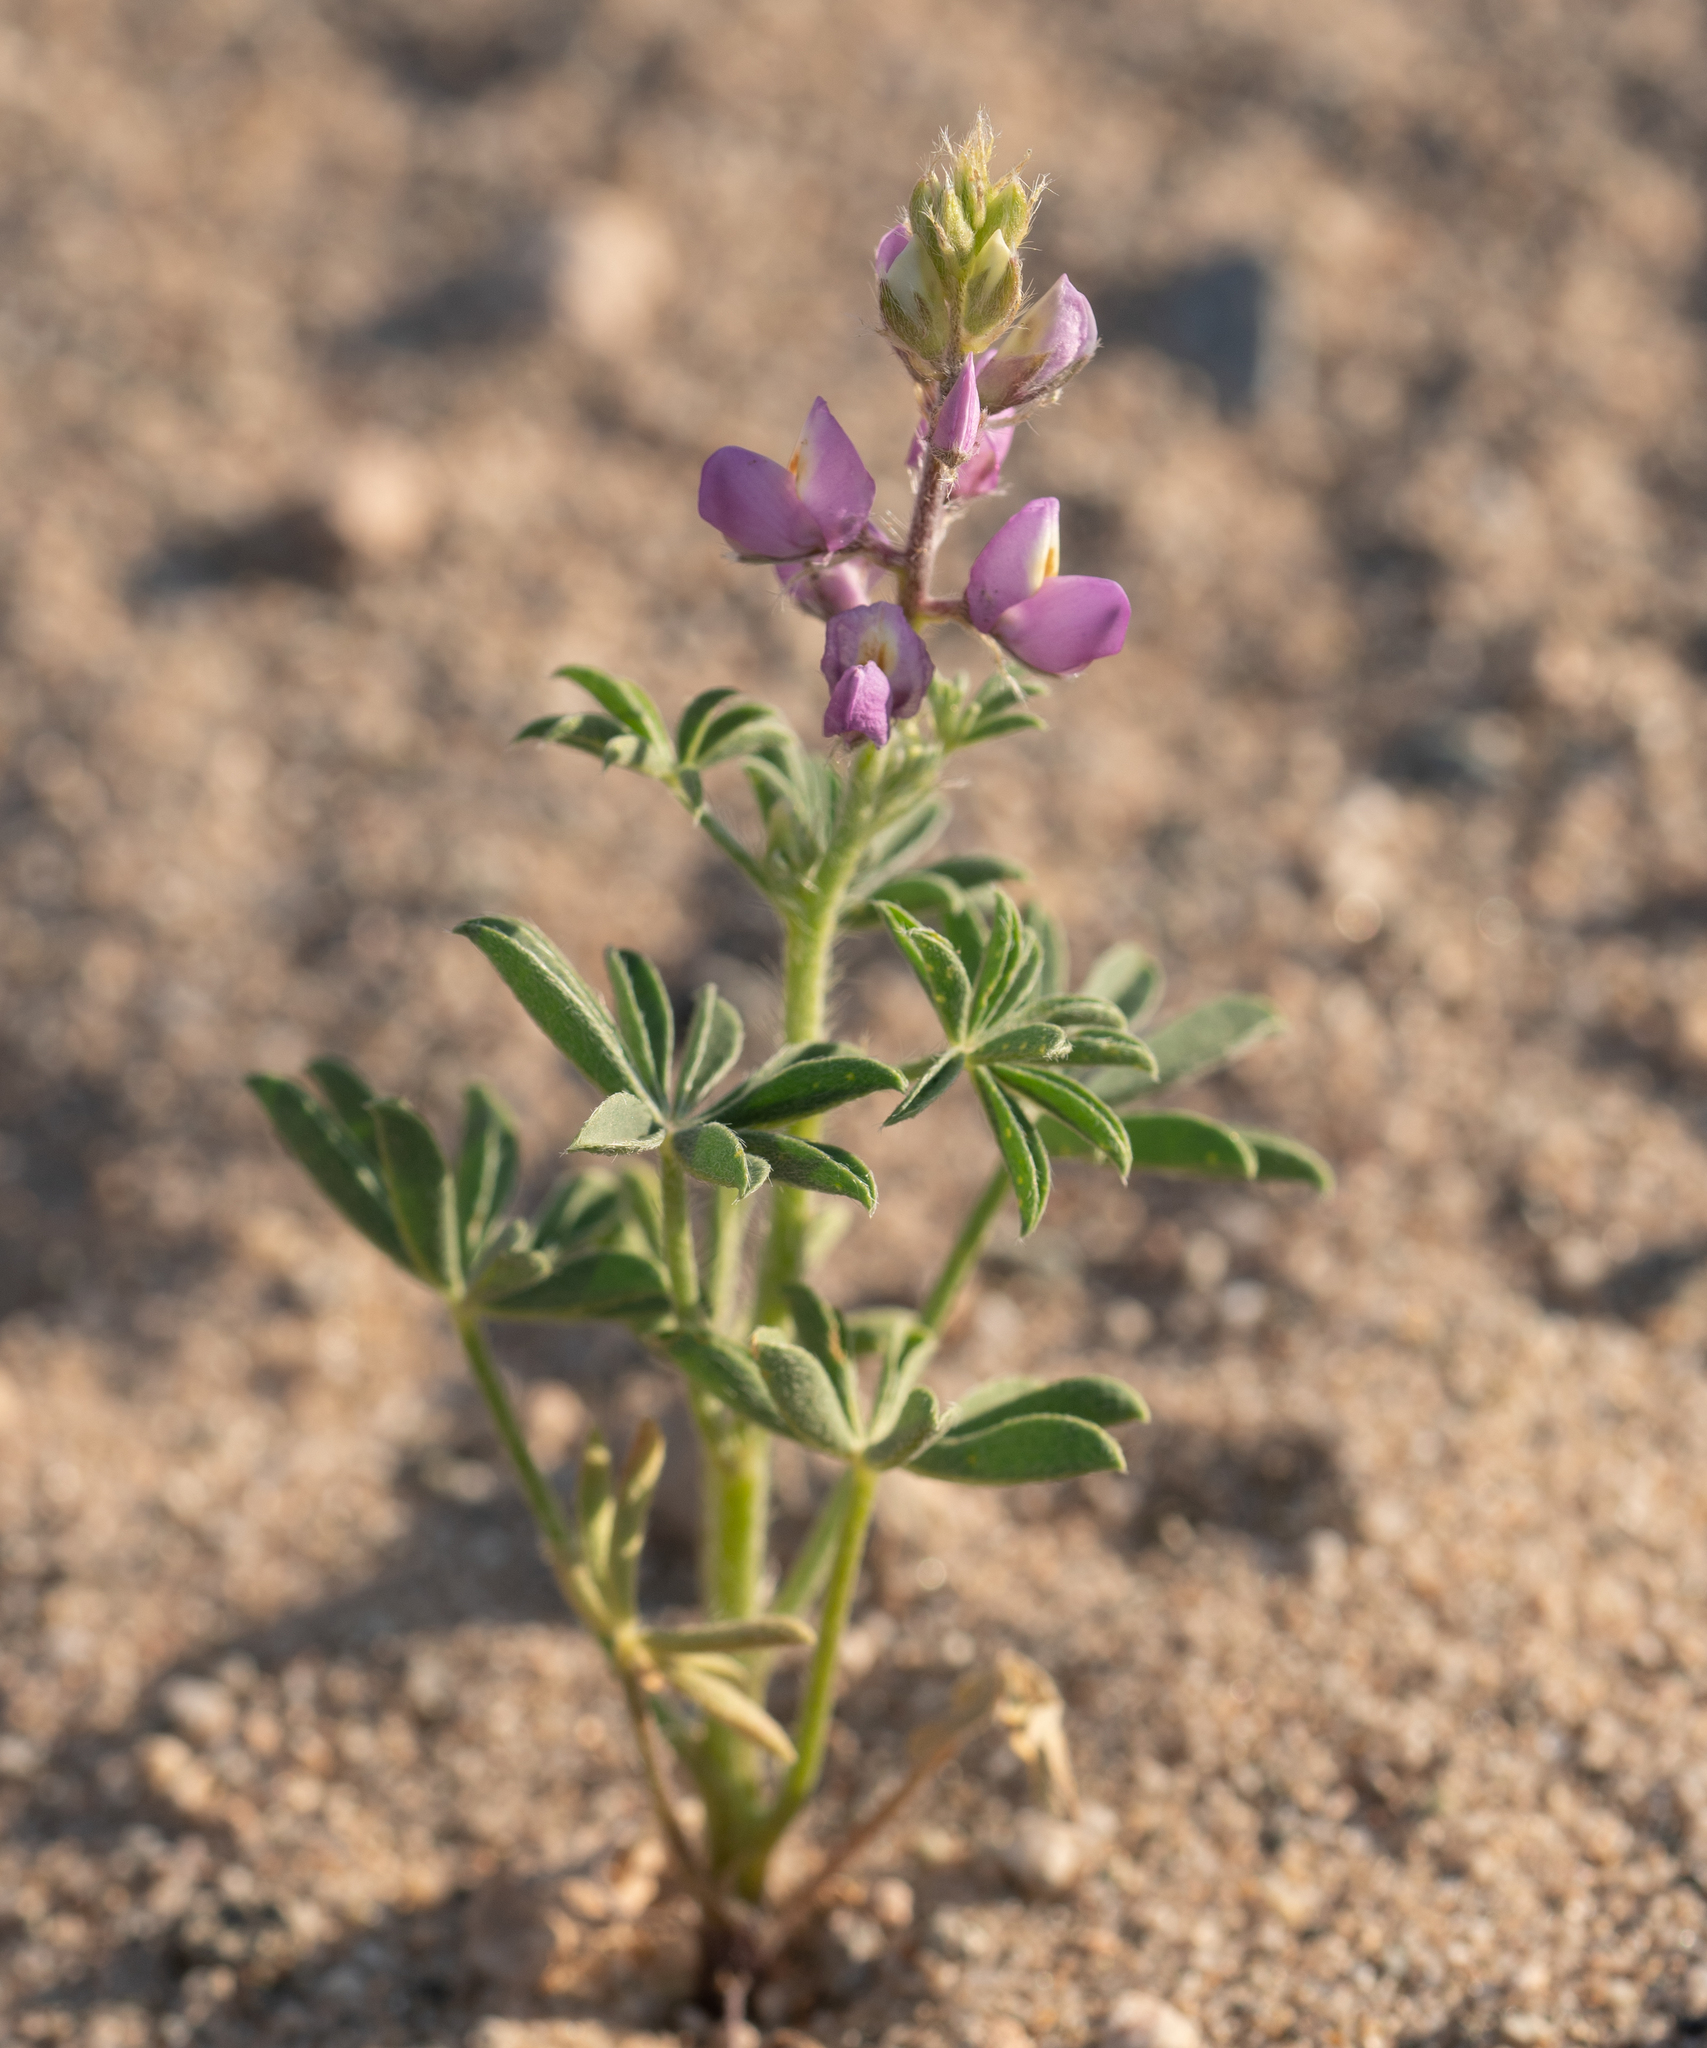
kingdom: Plantae
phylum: Tracheophyta
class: Magnoliopsida
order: Fabales
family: Fabaceae
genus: Lupinus
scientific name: Lupinus arizonicus
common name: Arizona lupine
